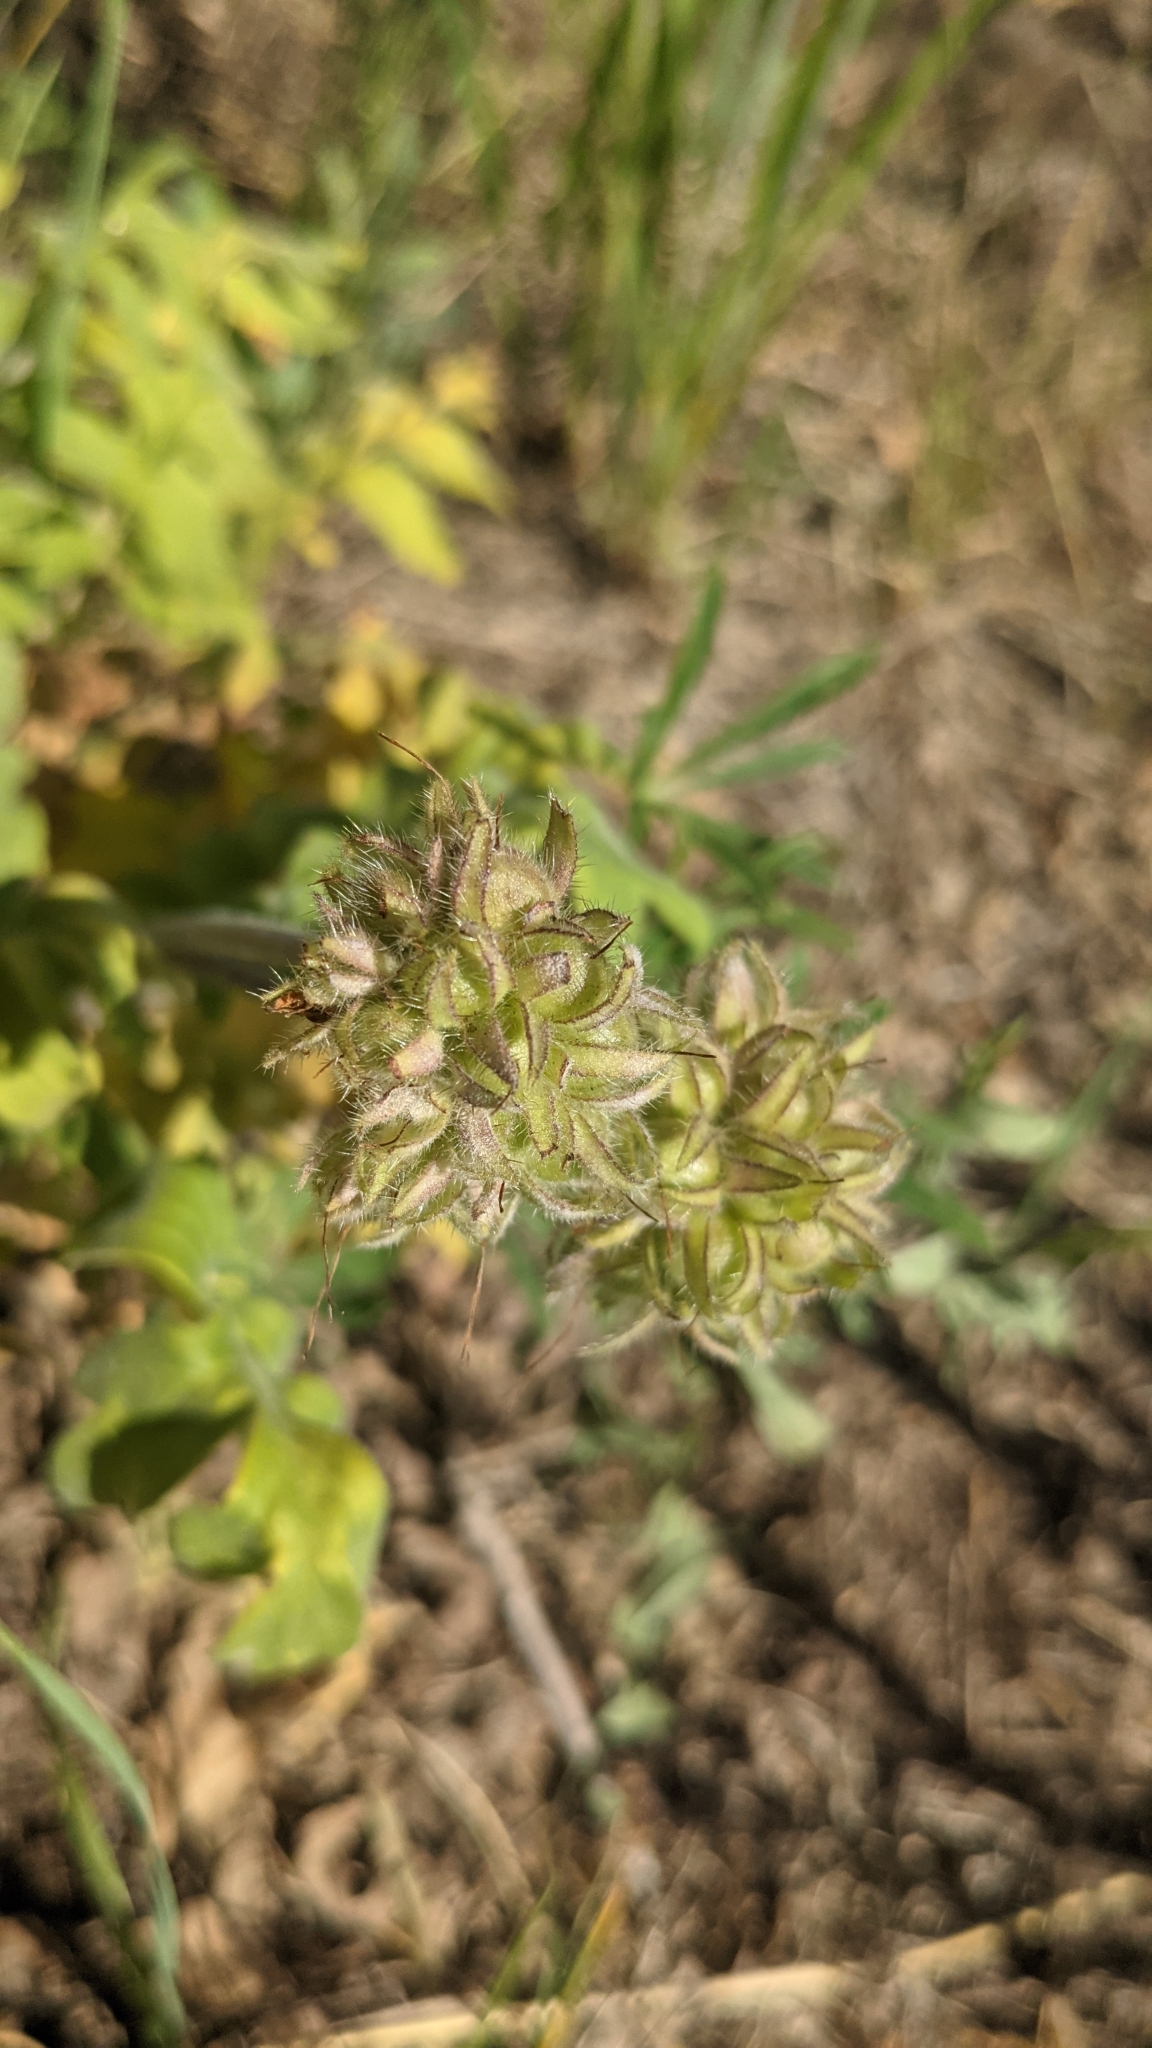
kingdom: Plantae
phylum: Tracheophyta
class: Magnoliopsida
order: Boraginales
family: Hydrophyllaceae
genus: Hydrophyllum
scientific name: Hydrophyllum occidentale
